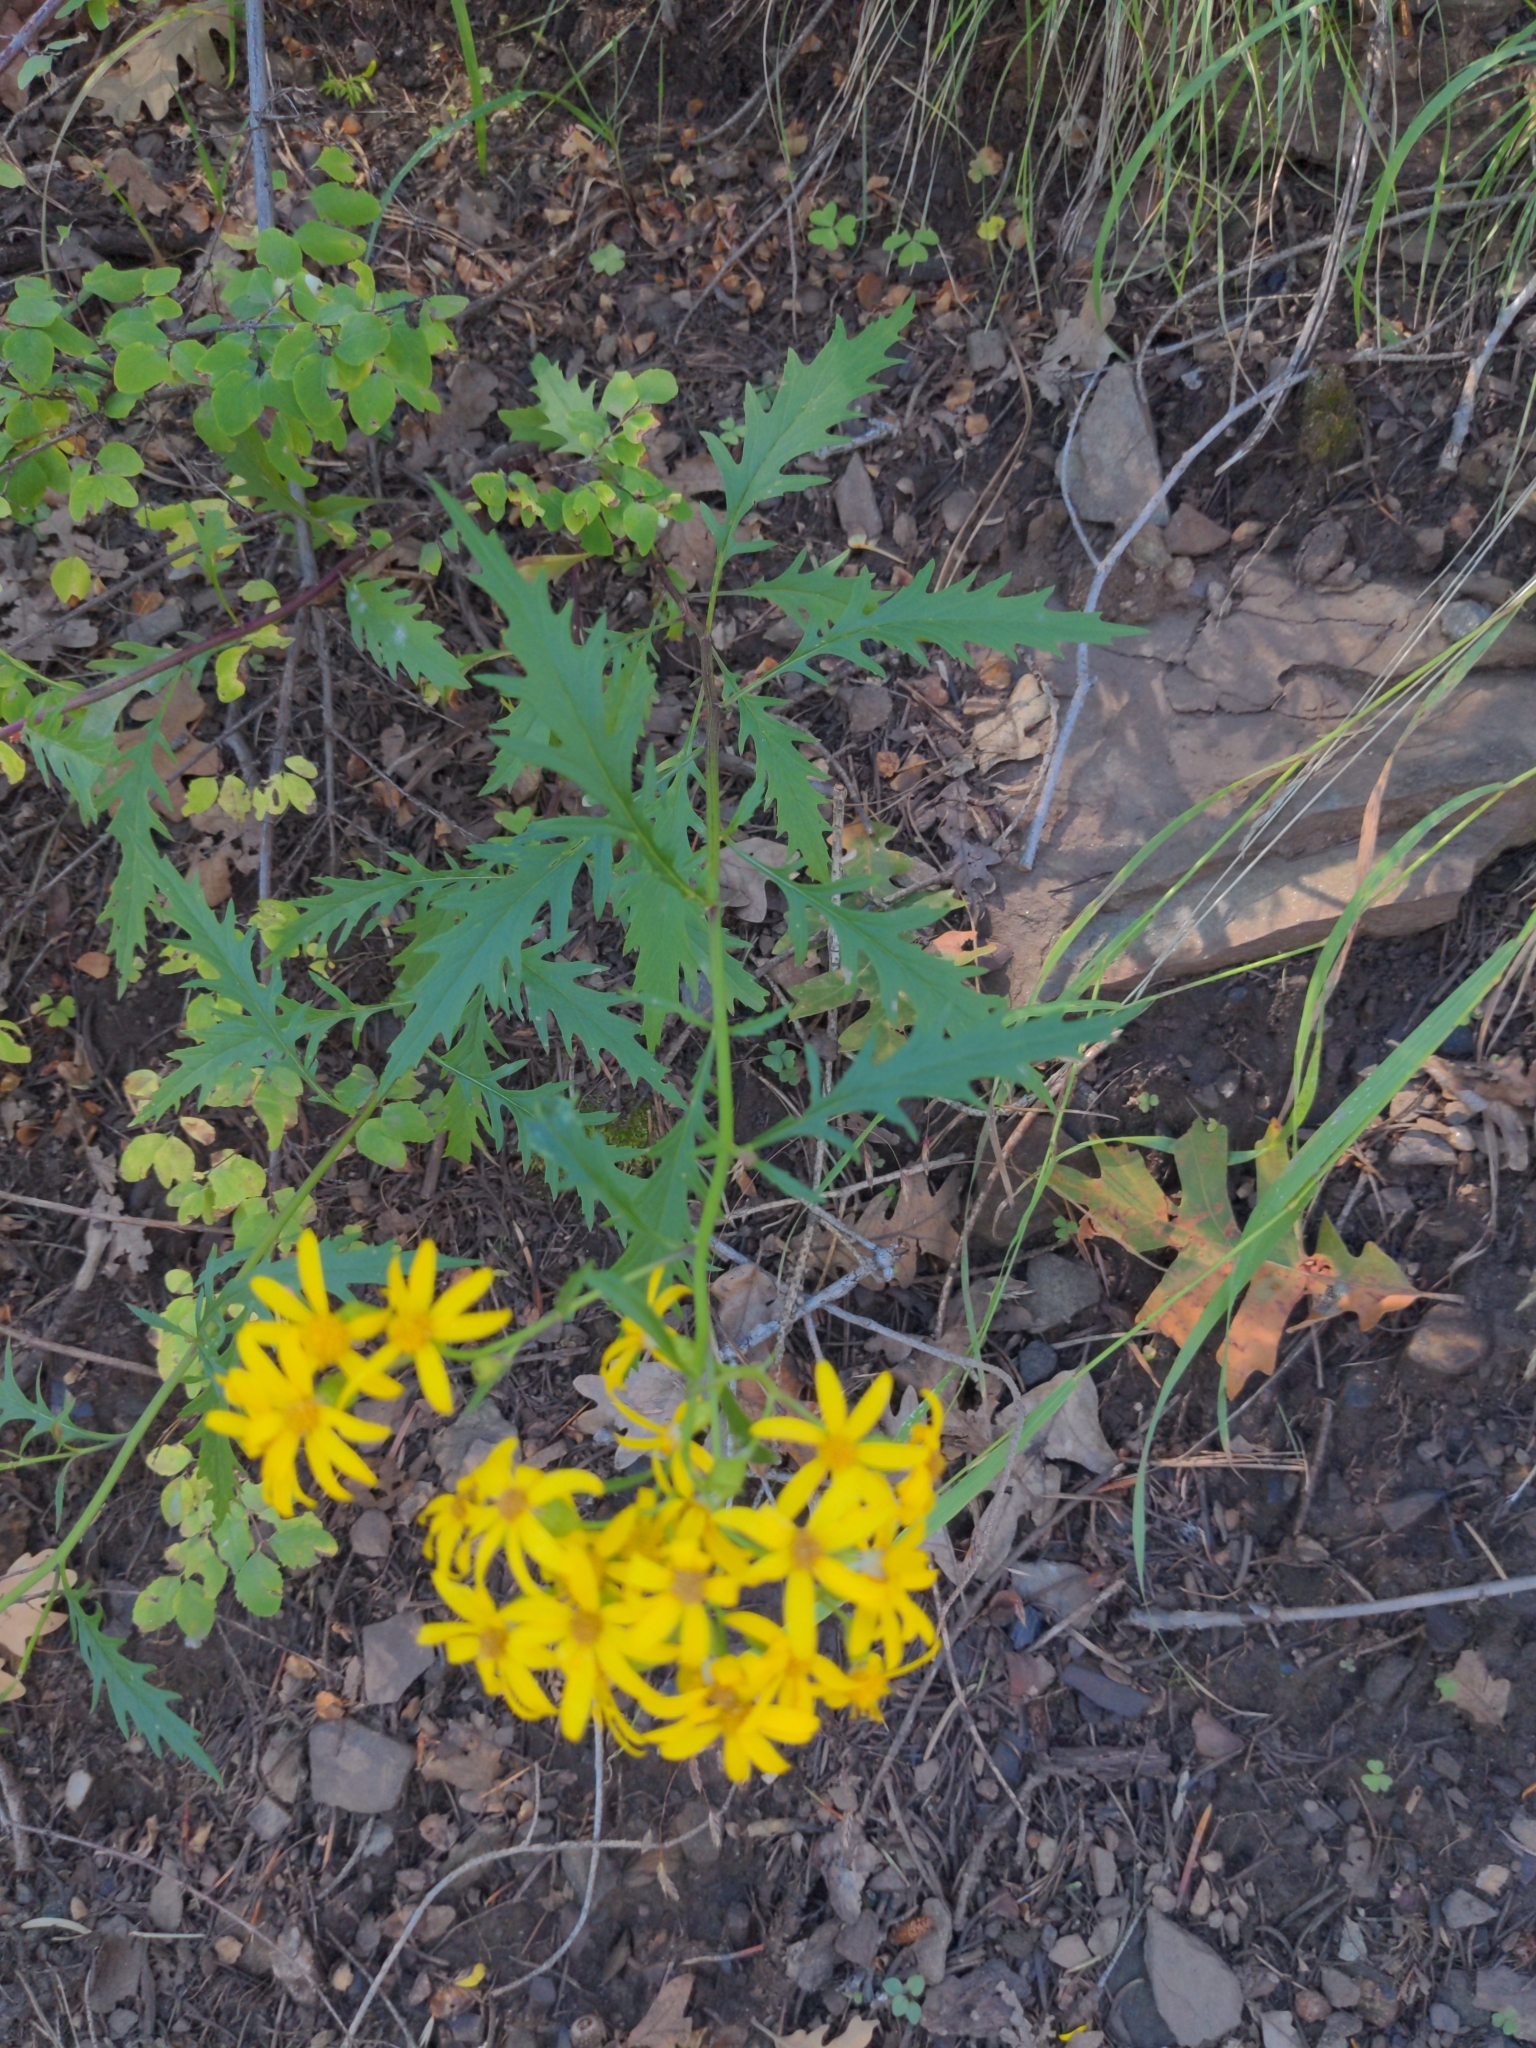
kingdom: Plantae
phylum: Tracheophyta
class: Magnoliopsida
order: Asterales
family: Asteraceae
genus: Senecio
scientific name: Senecio eremophilus
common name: Desert ragwort
